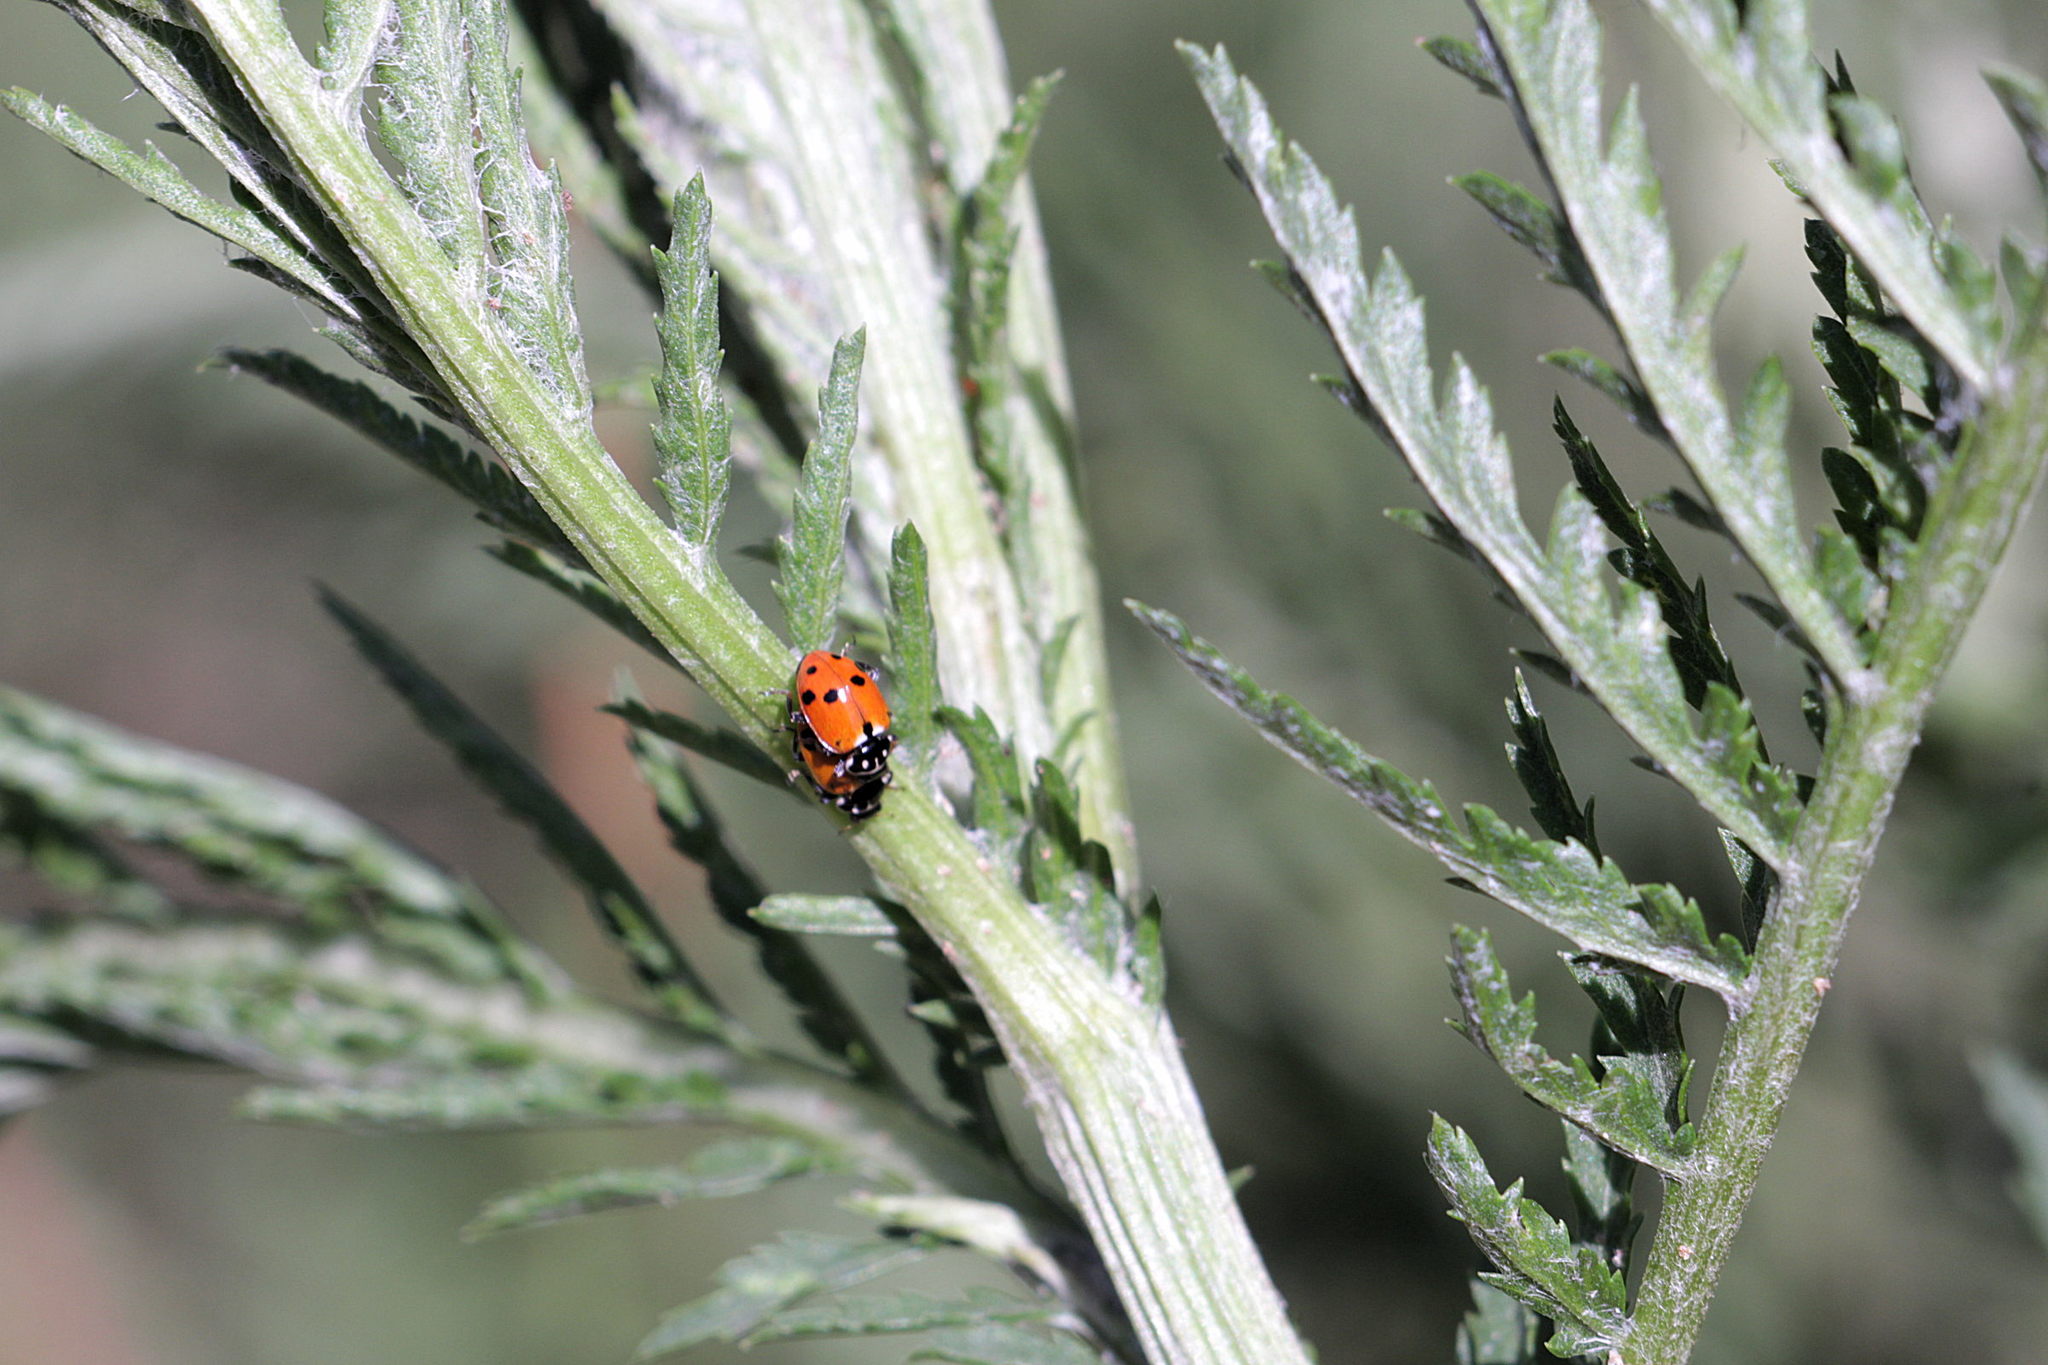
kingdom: Animalia
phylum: Arthropoda
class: Insecta
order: Coleoptera
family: Coccinellidae
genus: Hippodamia
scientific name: Hippodamia variegata
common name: Ladybird beetle
